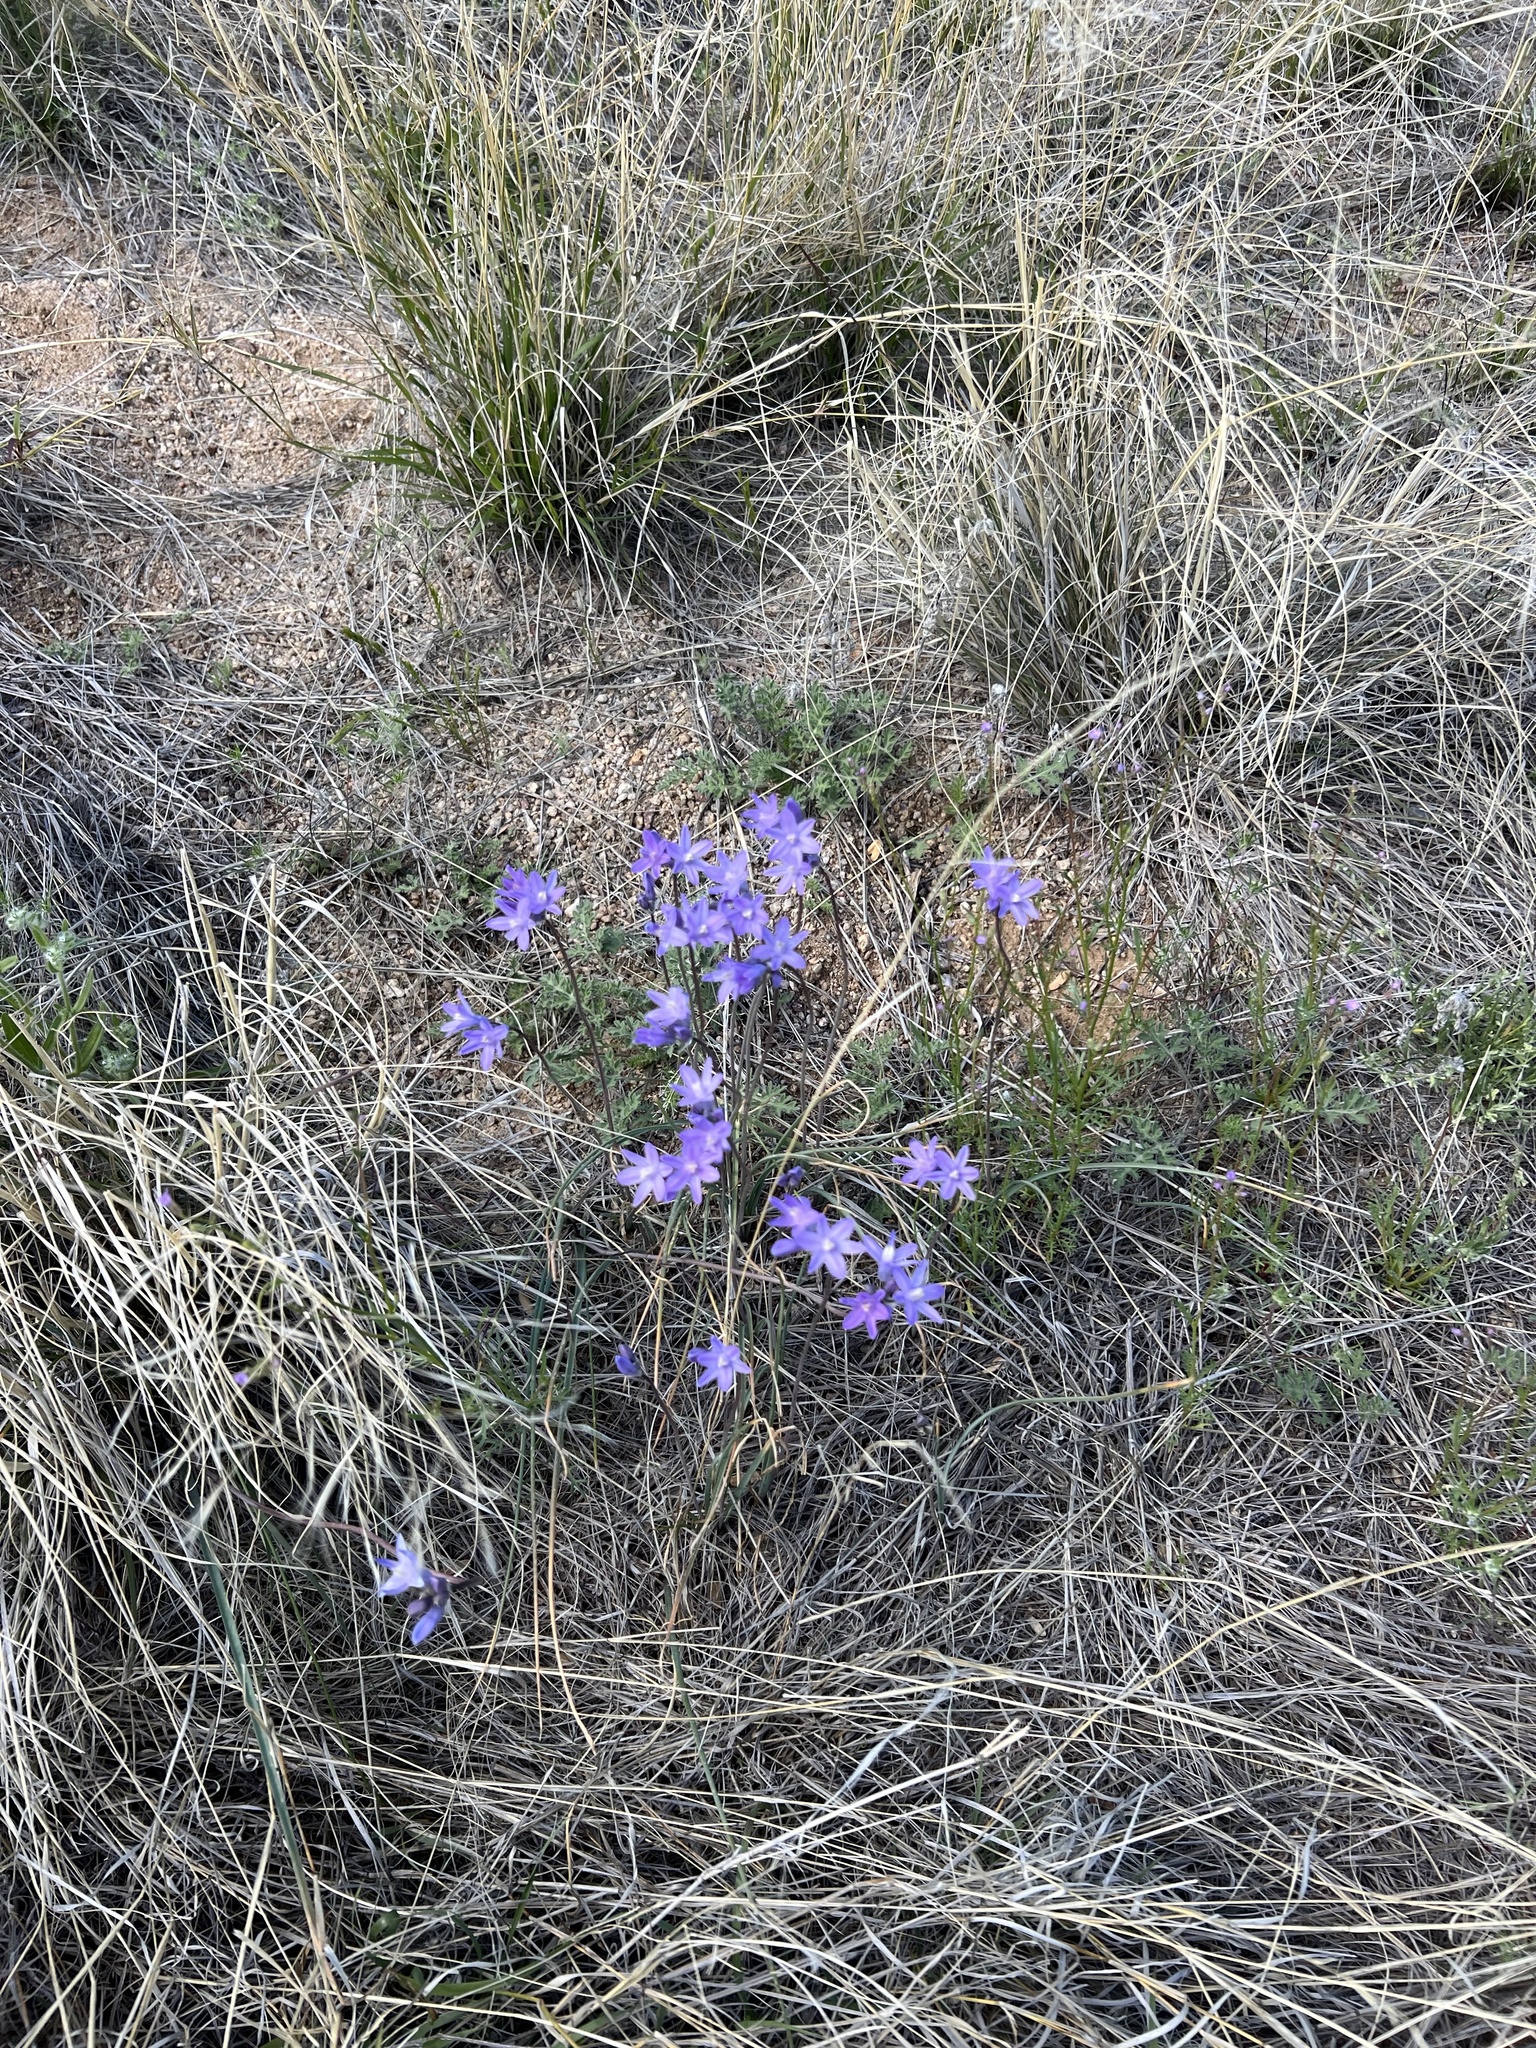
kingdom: Plantae
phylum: Tracheophyta
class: Liliopsida
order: Asparagales
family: Asparagaceae
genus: Dipterostemon
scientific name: Dipterostemon capitatus
